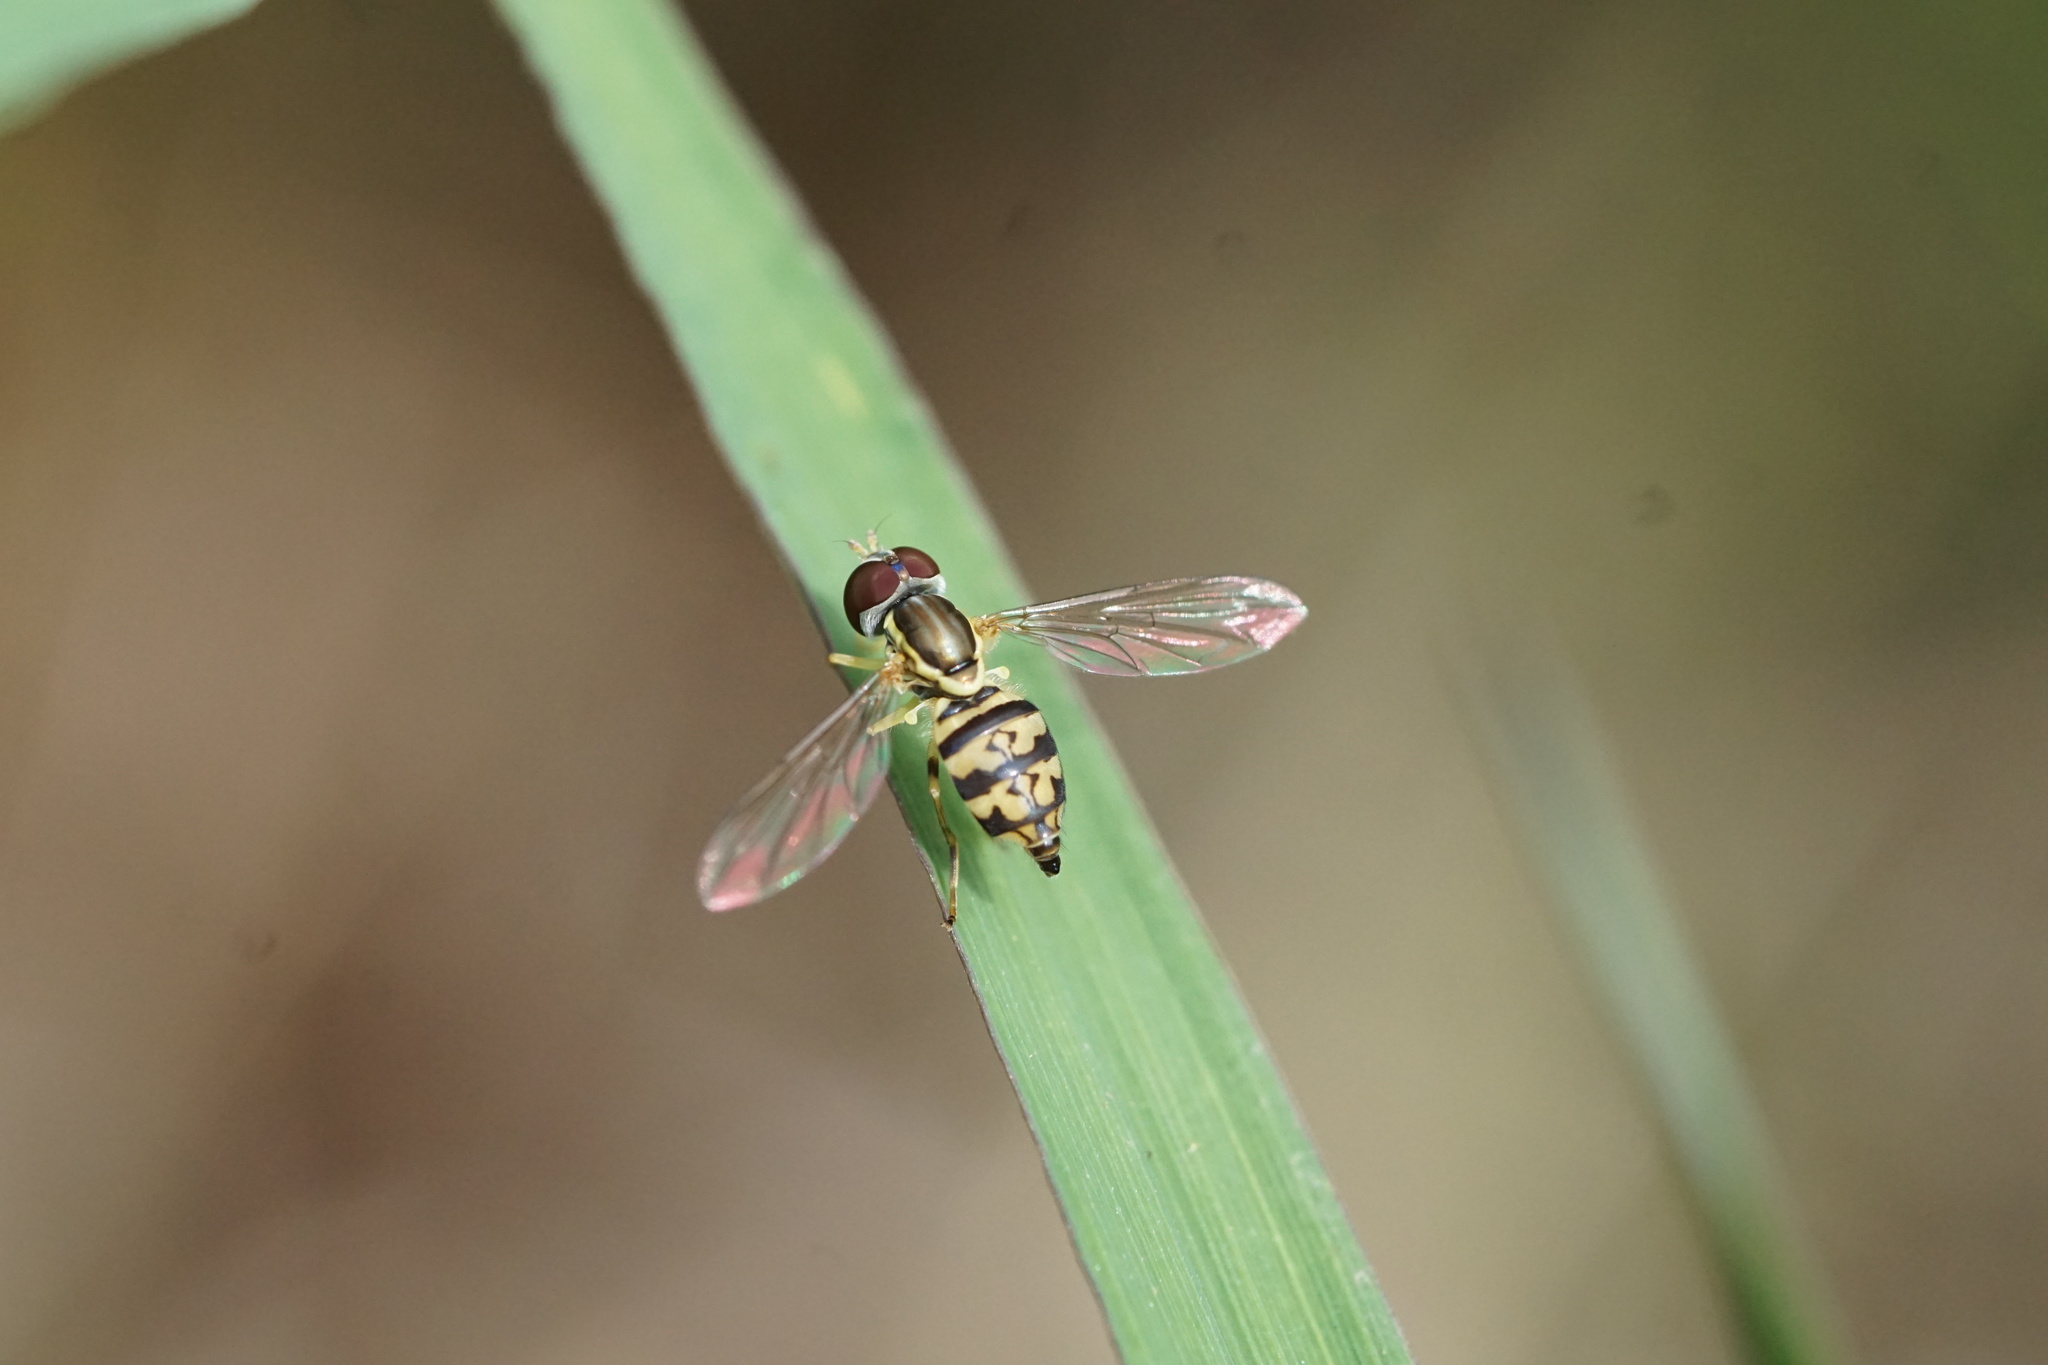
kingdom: Animalia
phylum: Arthropoda
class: Insecta
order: Diptera
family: Syrphidae
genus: Toxomerus
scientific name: Toxomerus geminatus
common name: Eastern calligrapher
